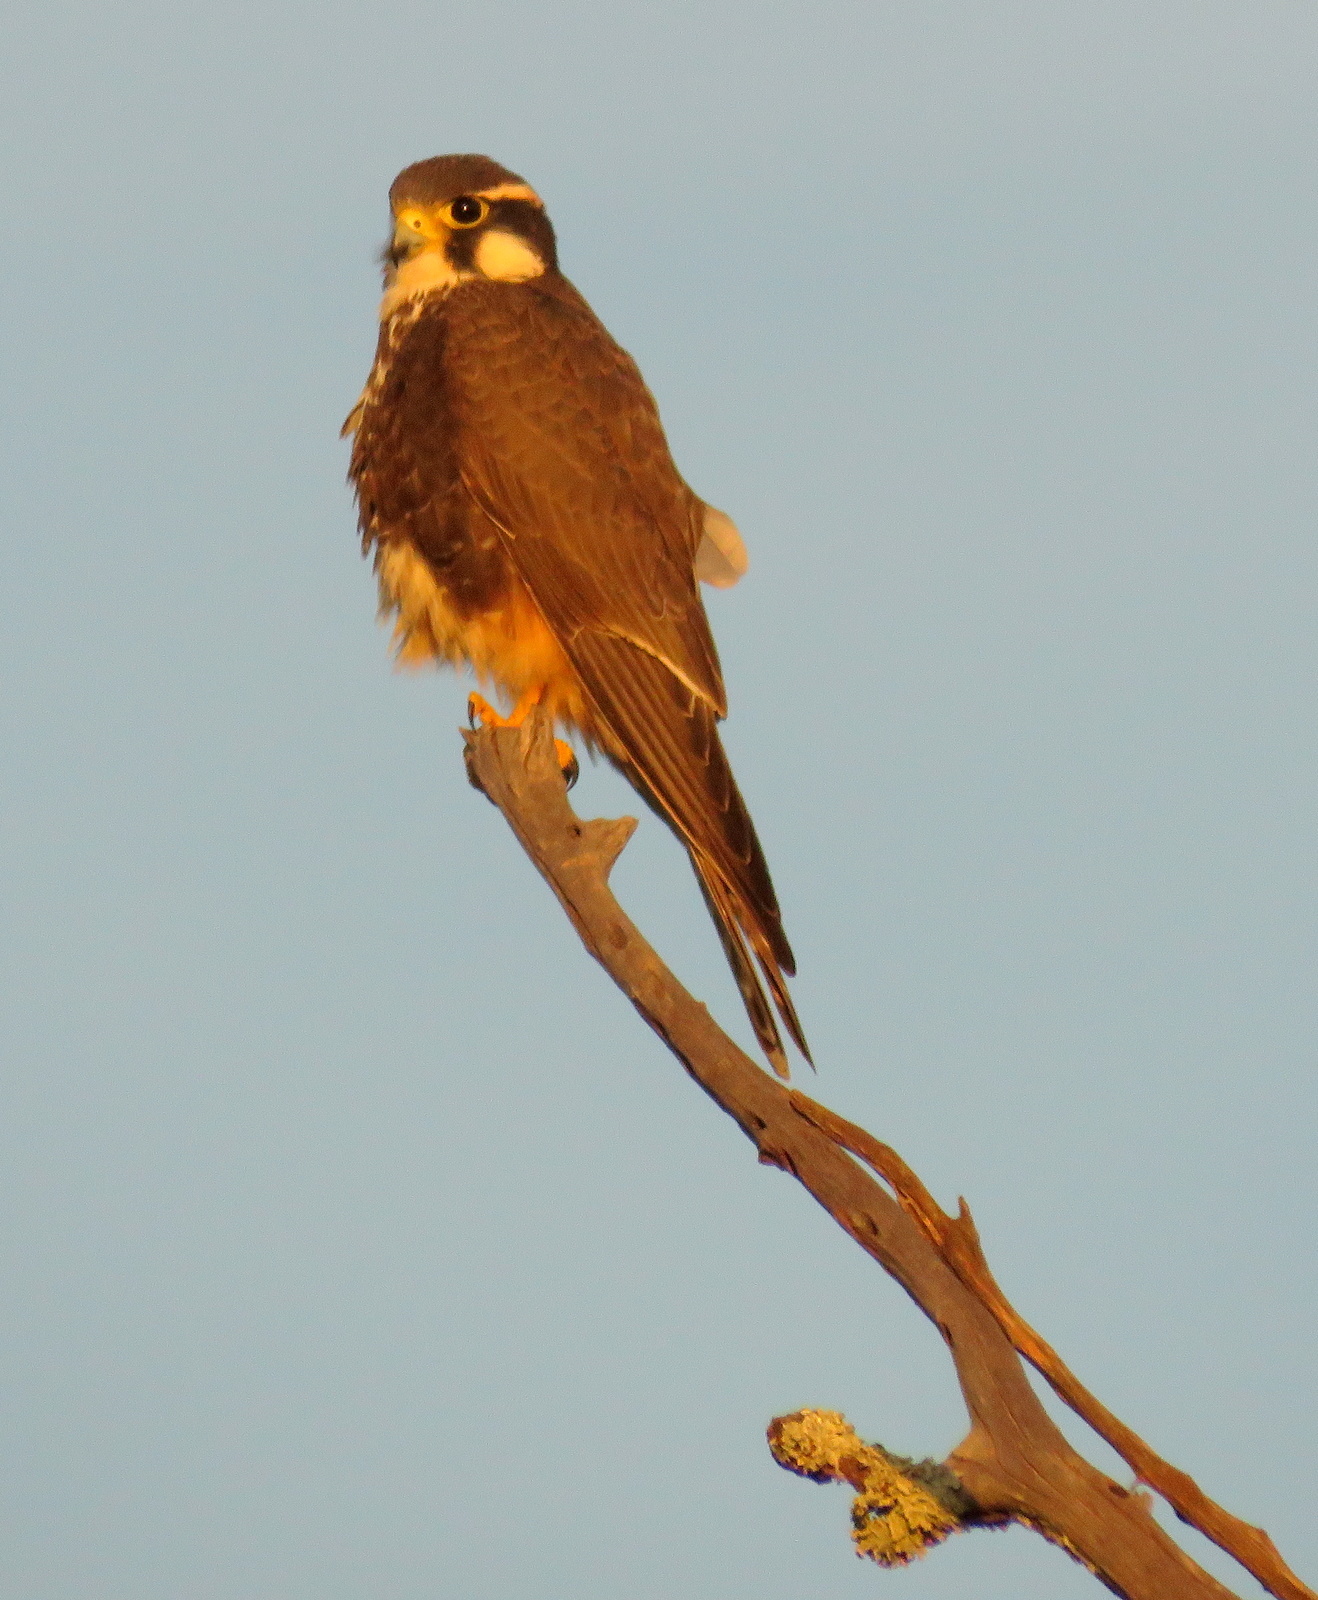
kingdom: Animalia
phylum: Chordata
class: Aves
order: Falconiformes
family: Falconidae
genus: Falco
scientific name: Falco femoralis
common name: Aplomado falcon
